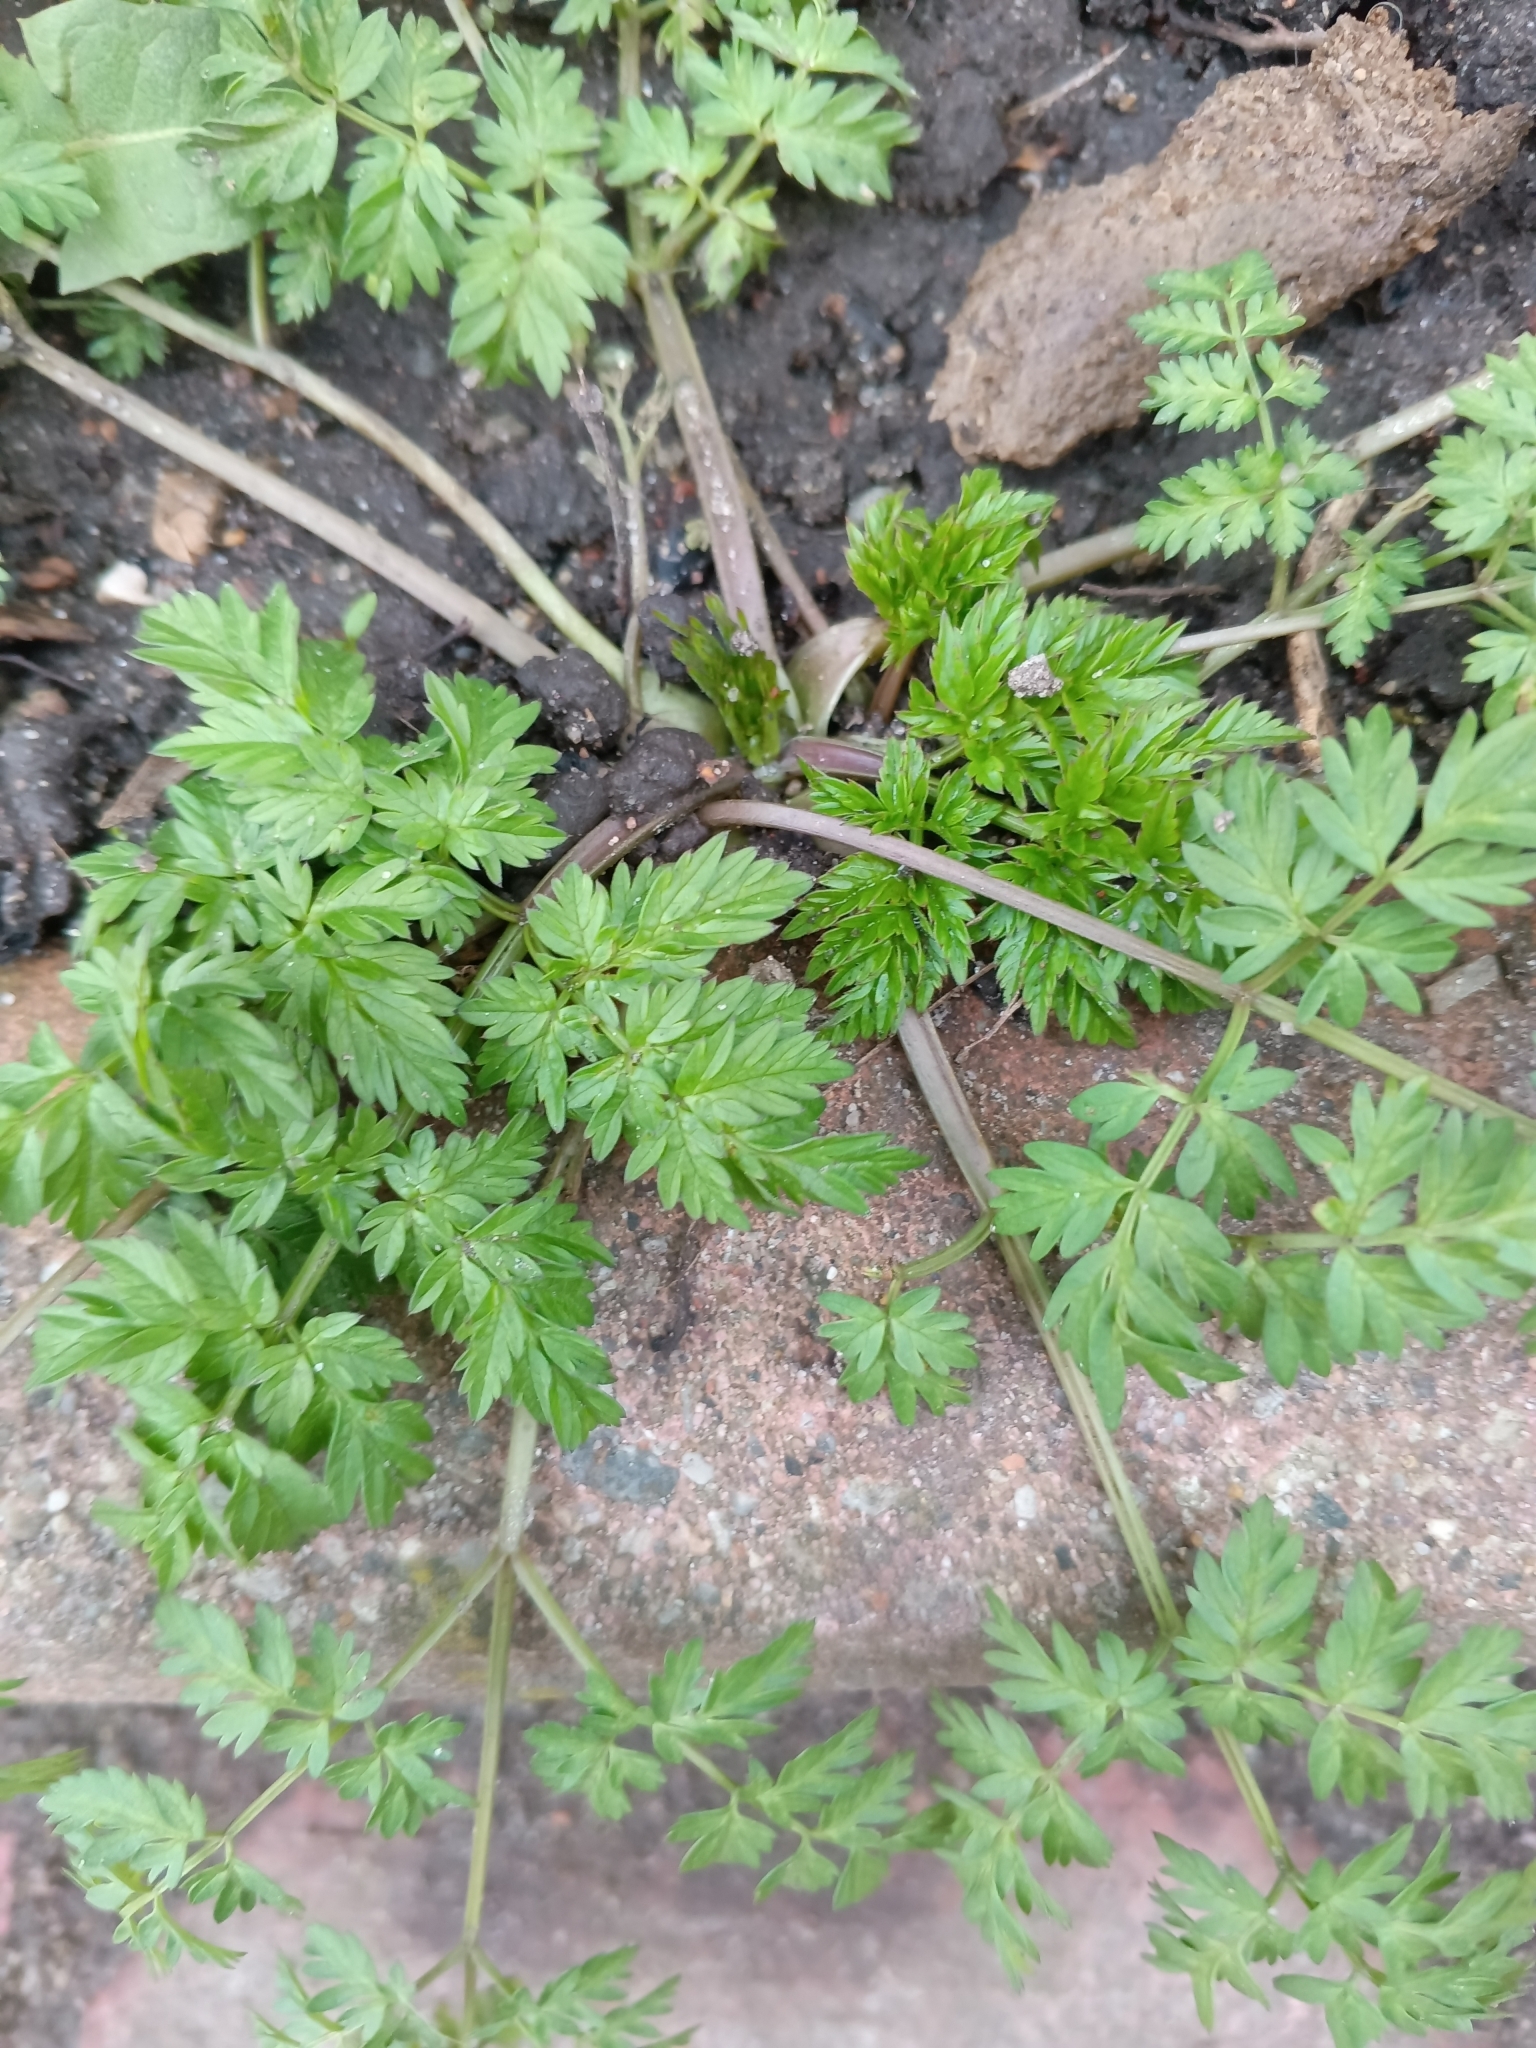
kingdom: Plantae
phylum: Tracheophyta
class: Magnoliopsida
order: Apiales
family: Apiaceae
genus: Anthriscus
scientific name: Anthriscus sylvestris
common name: Cow parsley
